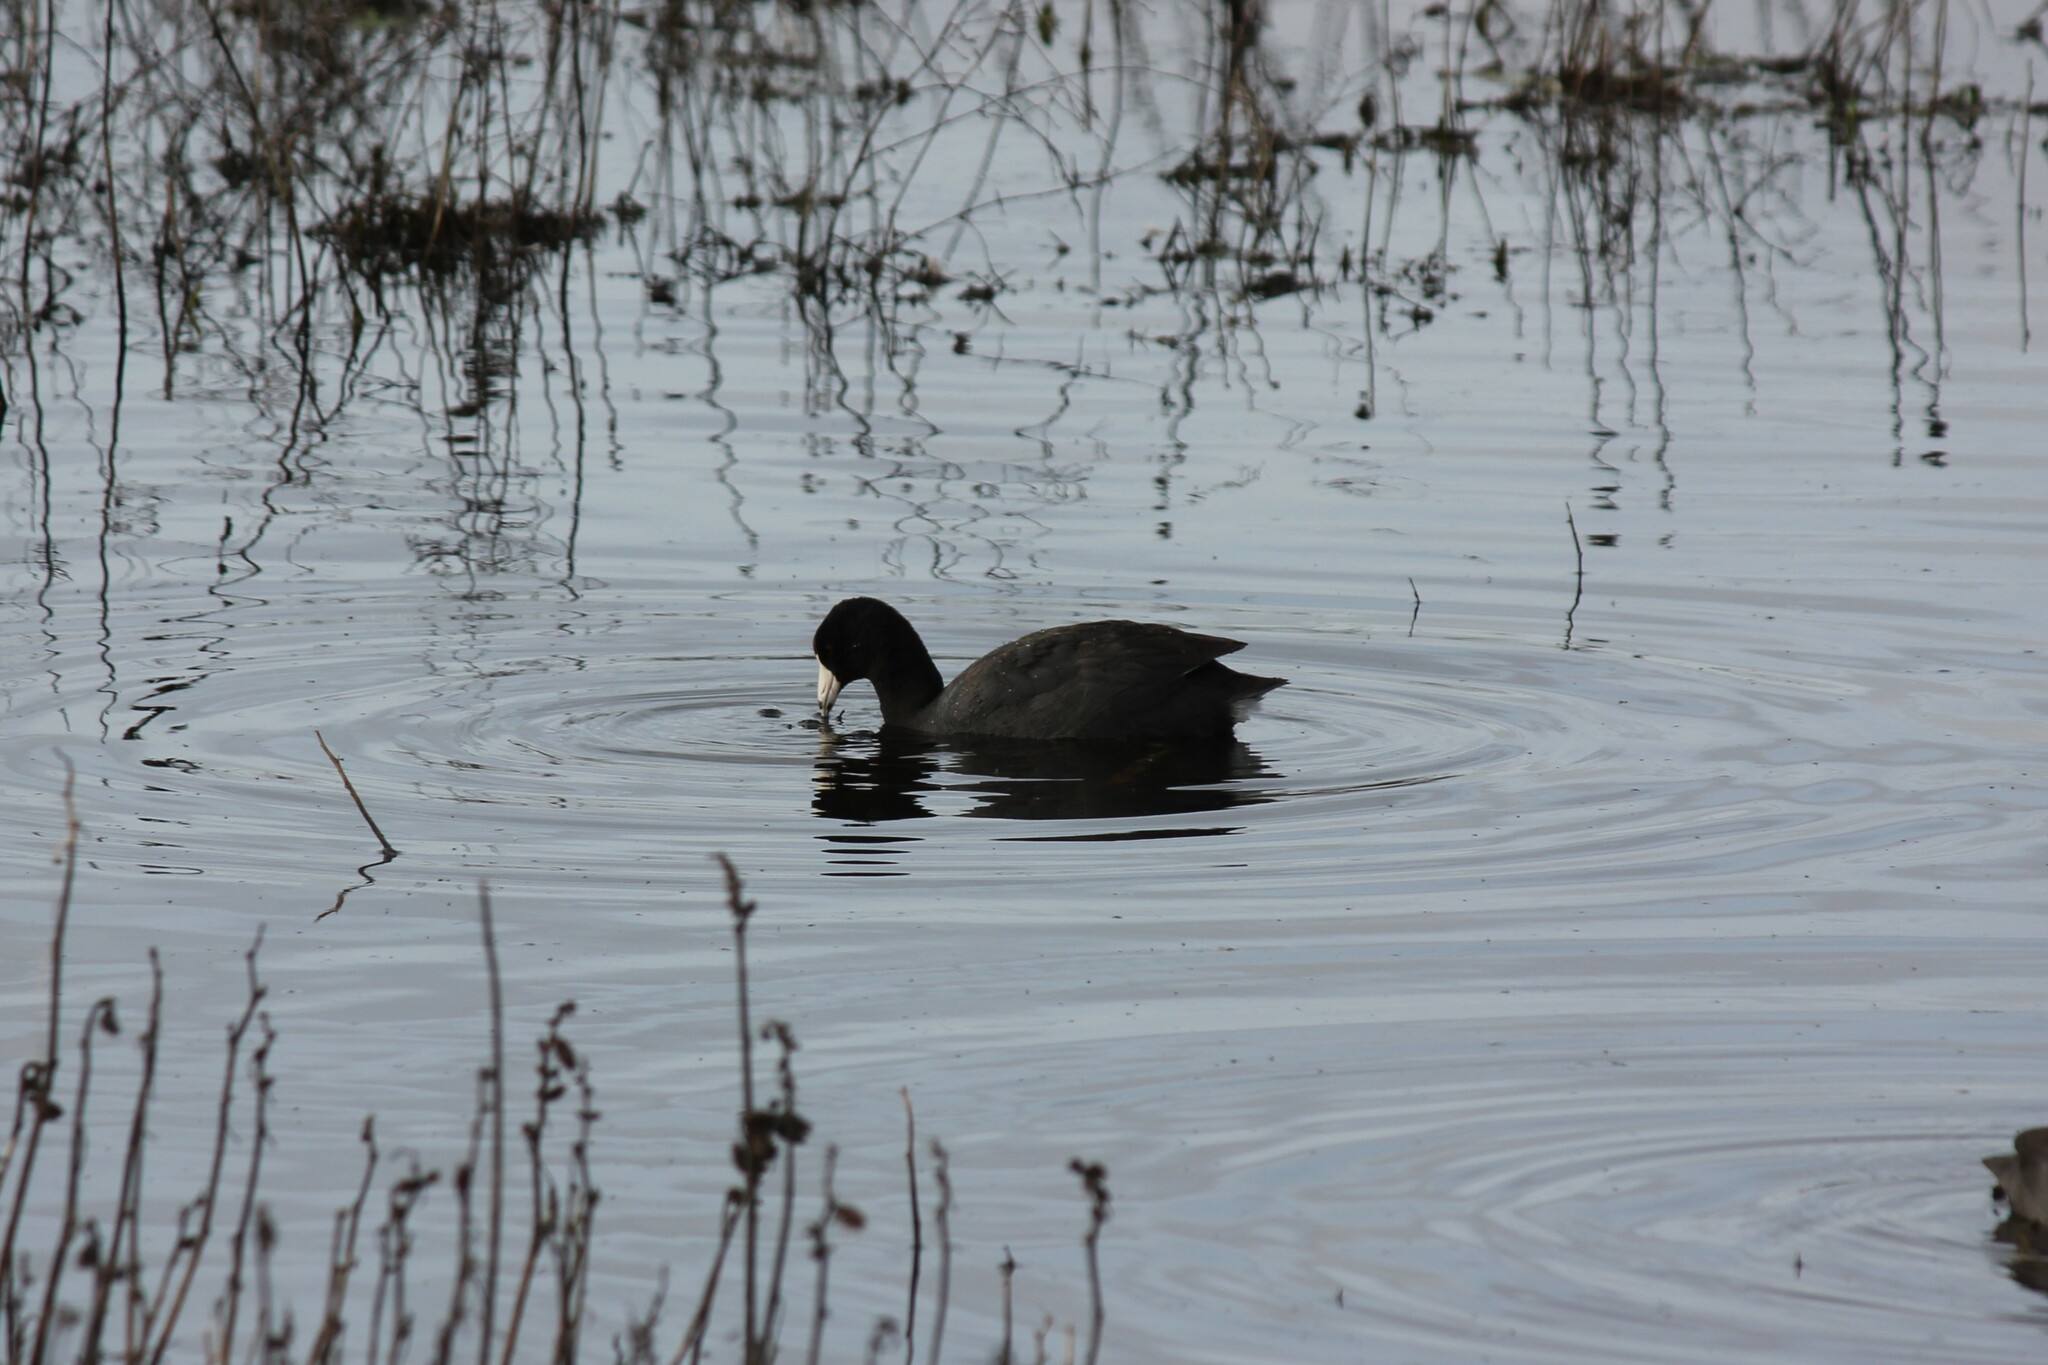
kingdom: Animalia
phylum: Chordata
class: Aves
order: Gruiformes
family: Rallidae
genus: Fulica
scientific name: Fulica americana
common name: American coot
